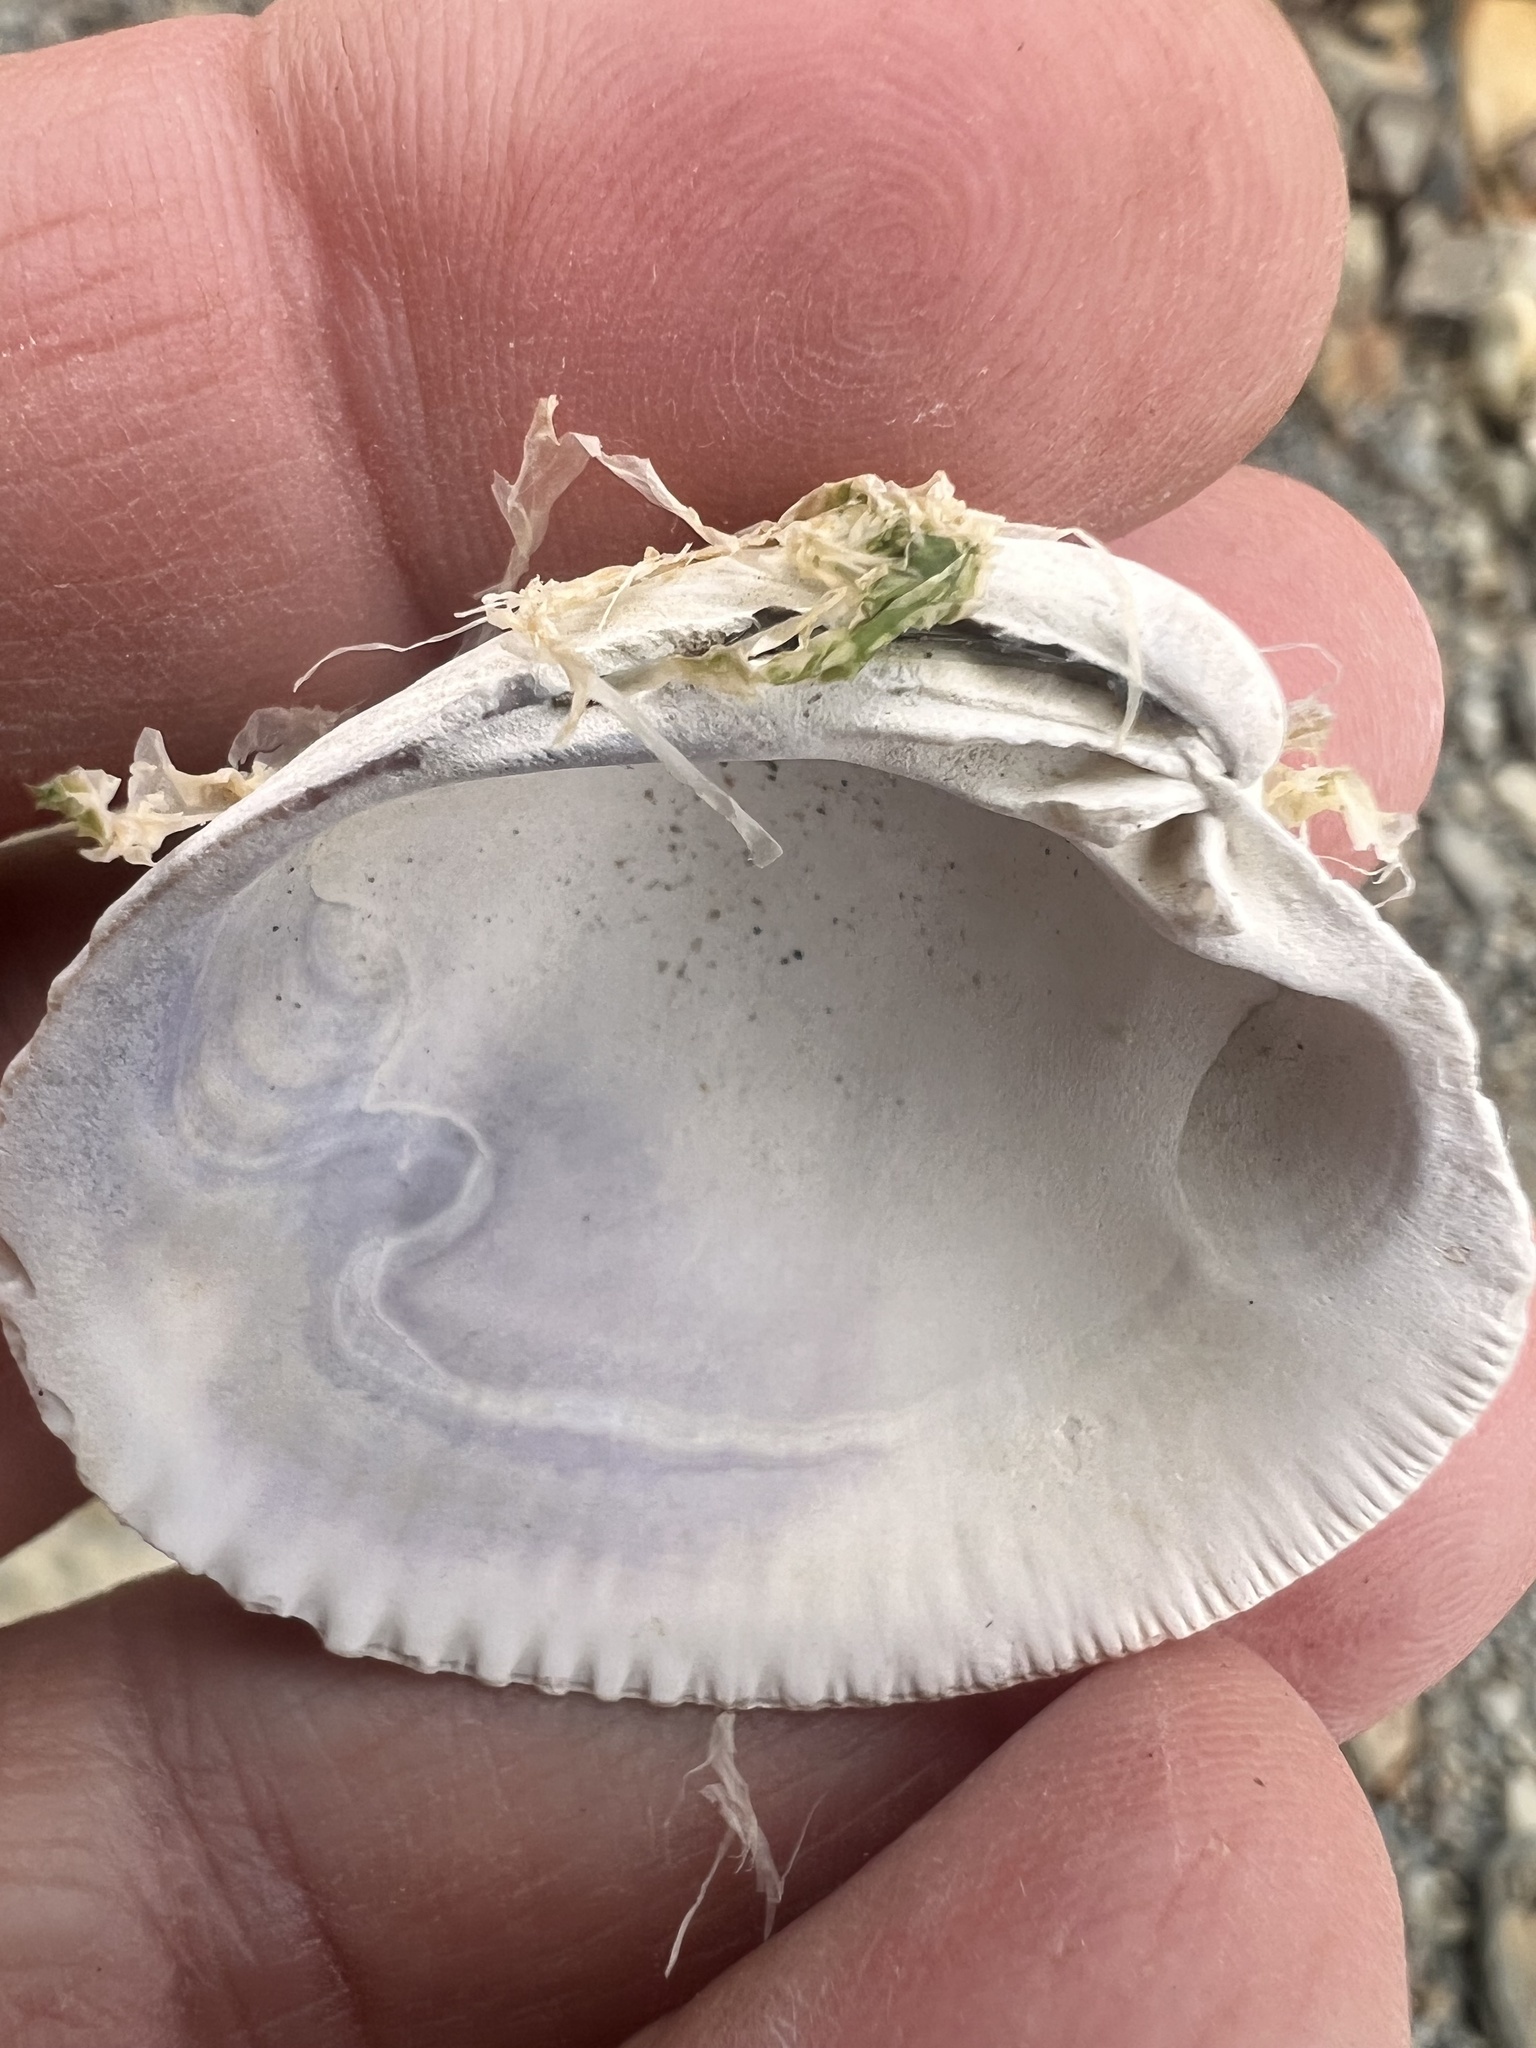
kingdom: Animalia
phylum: Mollusca
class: Bivalvia
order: Venerida
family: Veneridae
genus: Austrovenus
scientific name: Austrovenus stutchburyi
